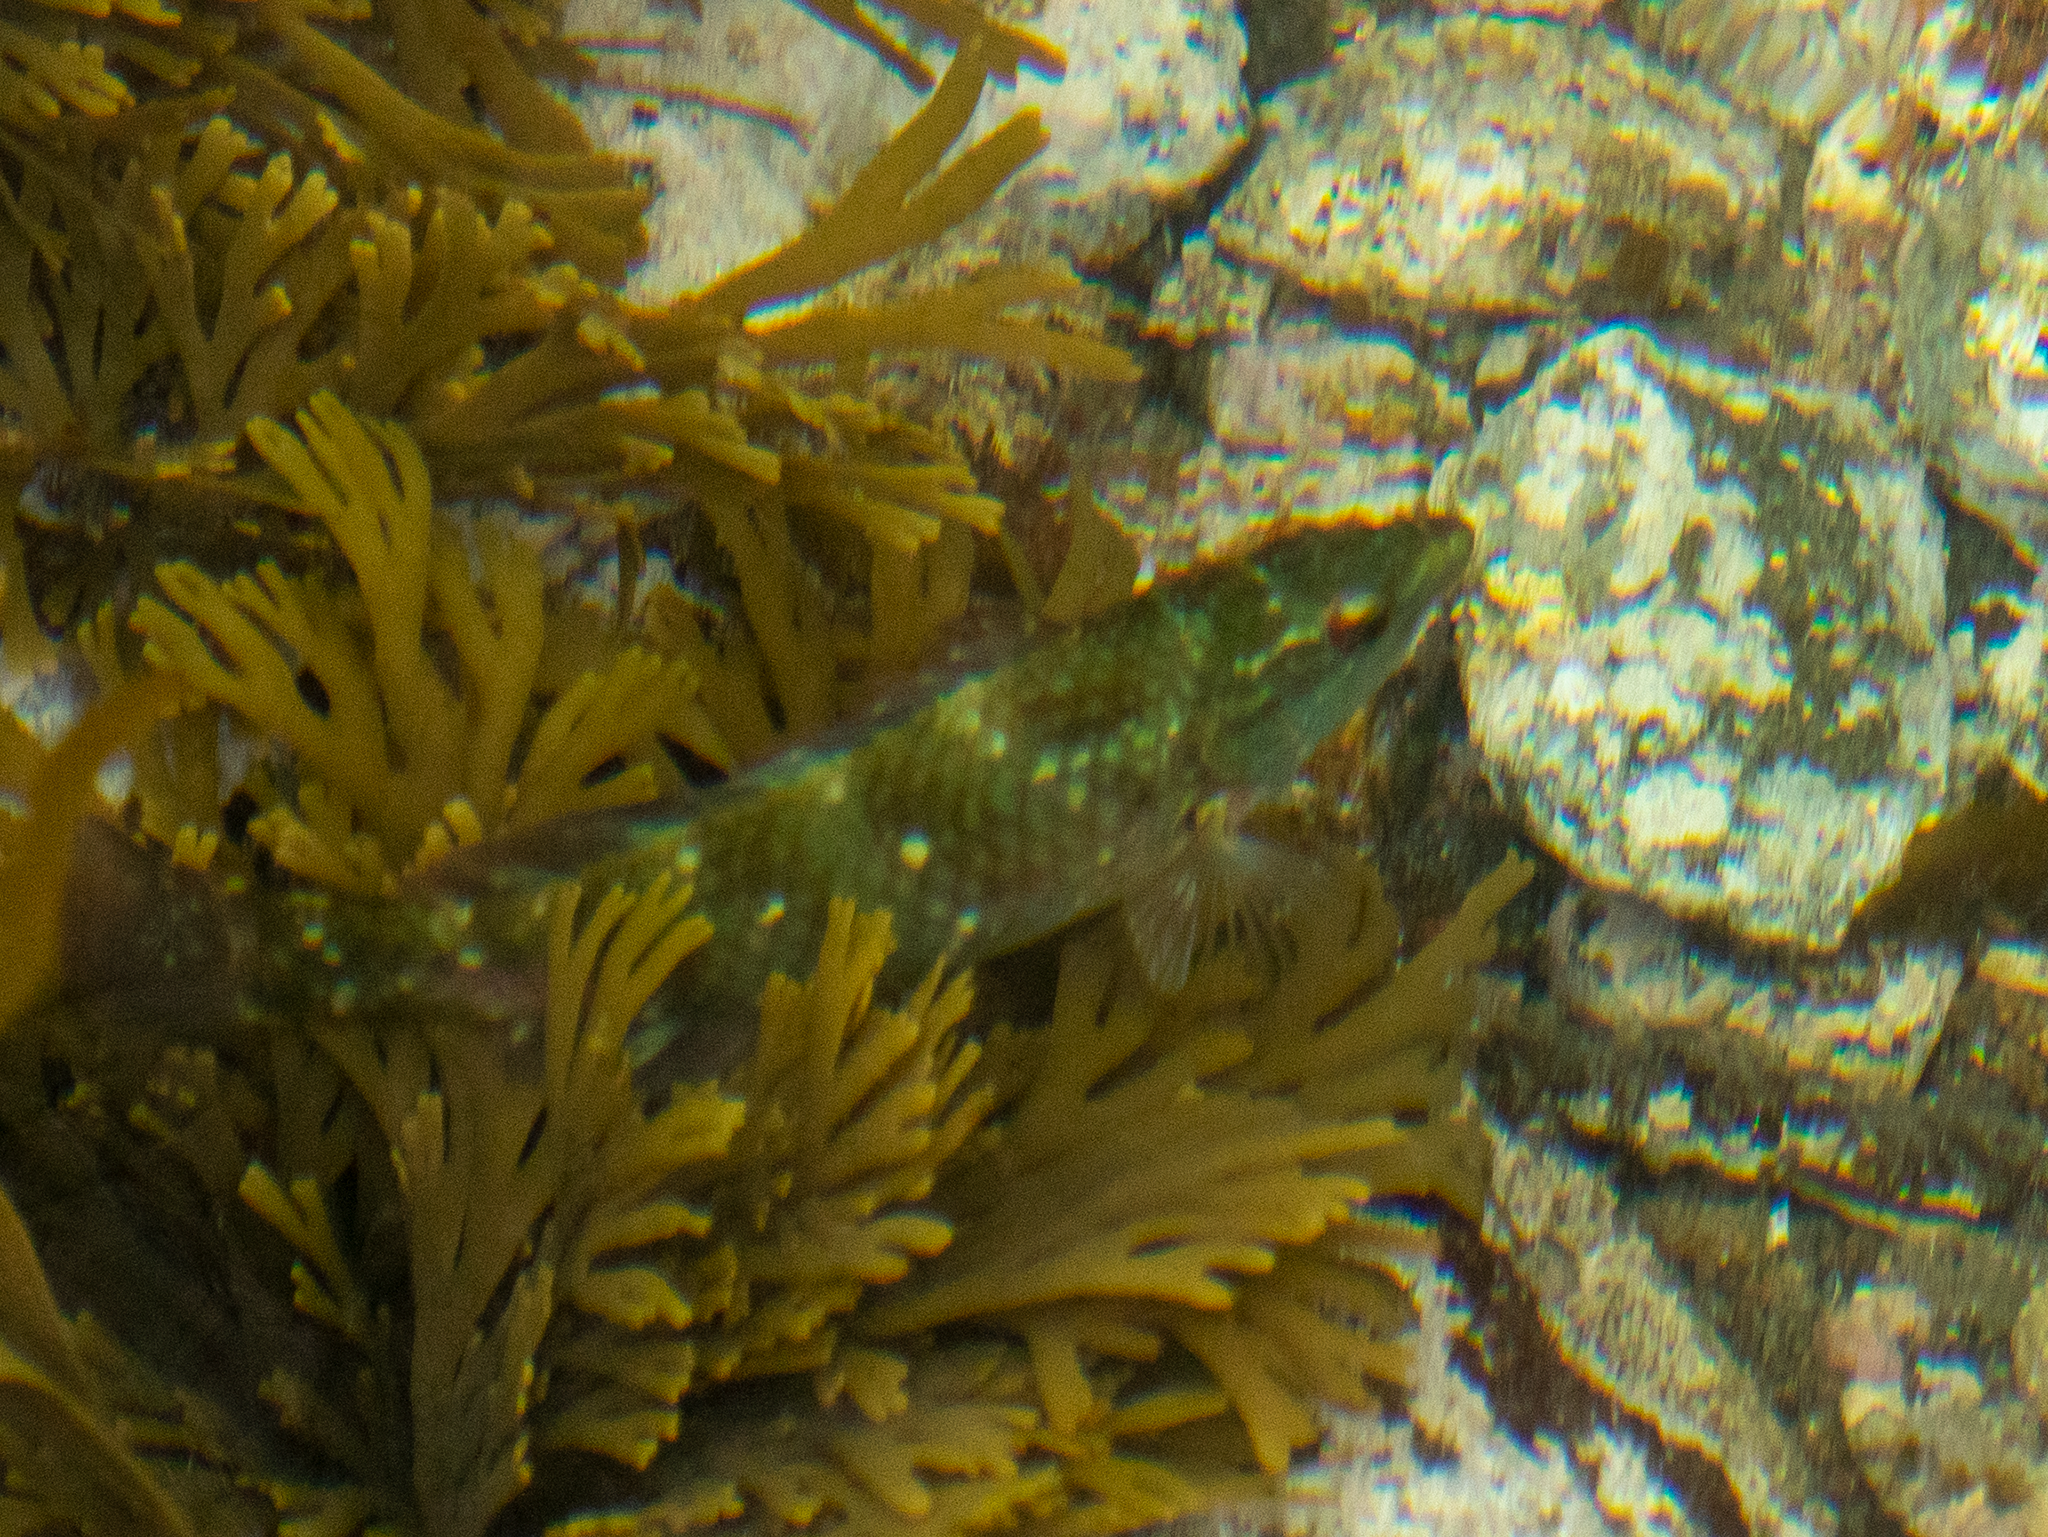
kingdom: Animalia
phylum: Chordata
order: Perciformes
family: Labridae
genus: Notolabrus
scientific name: Notolabrus fucicola
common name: Banded parrotfish
